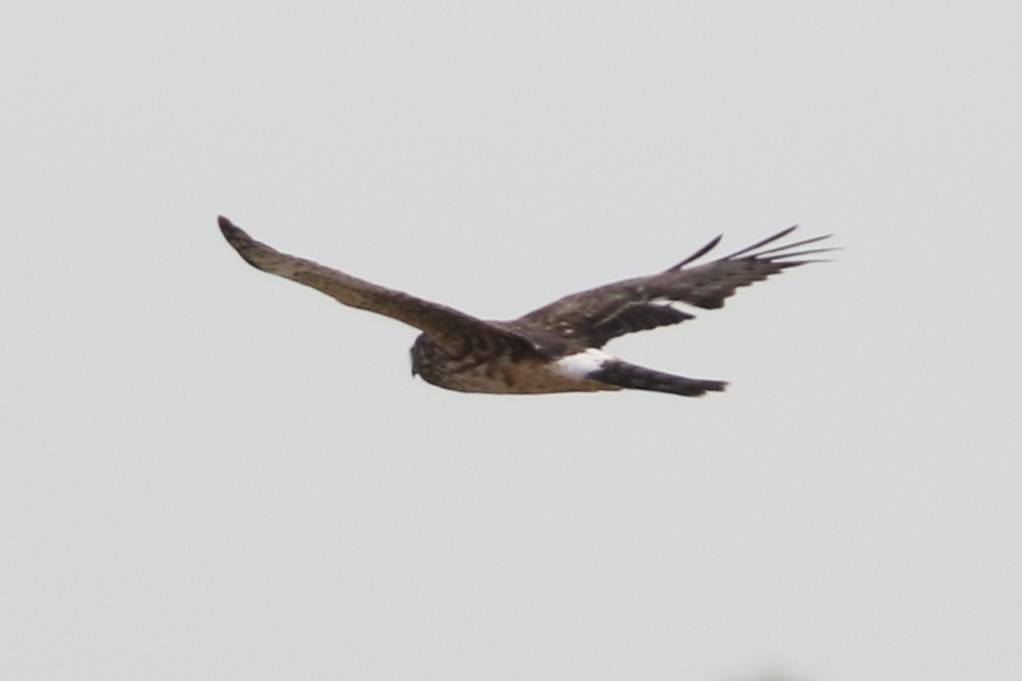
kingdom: Animalia
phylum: Chordata
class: Aves
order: Accipitriformes
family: Accipitridae
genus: Circus
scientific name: Circus cyaneus
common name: Hen harrier
